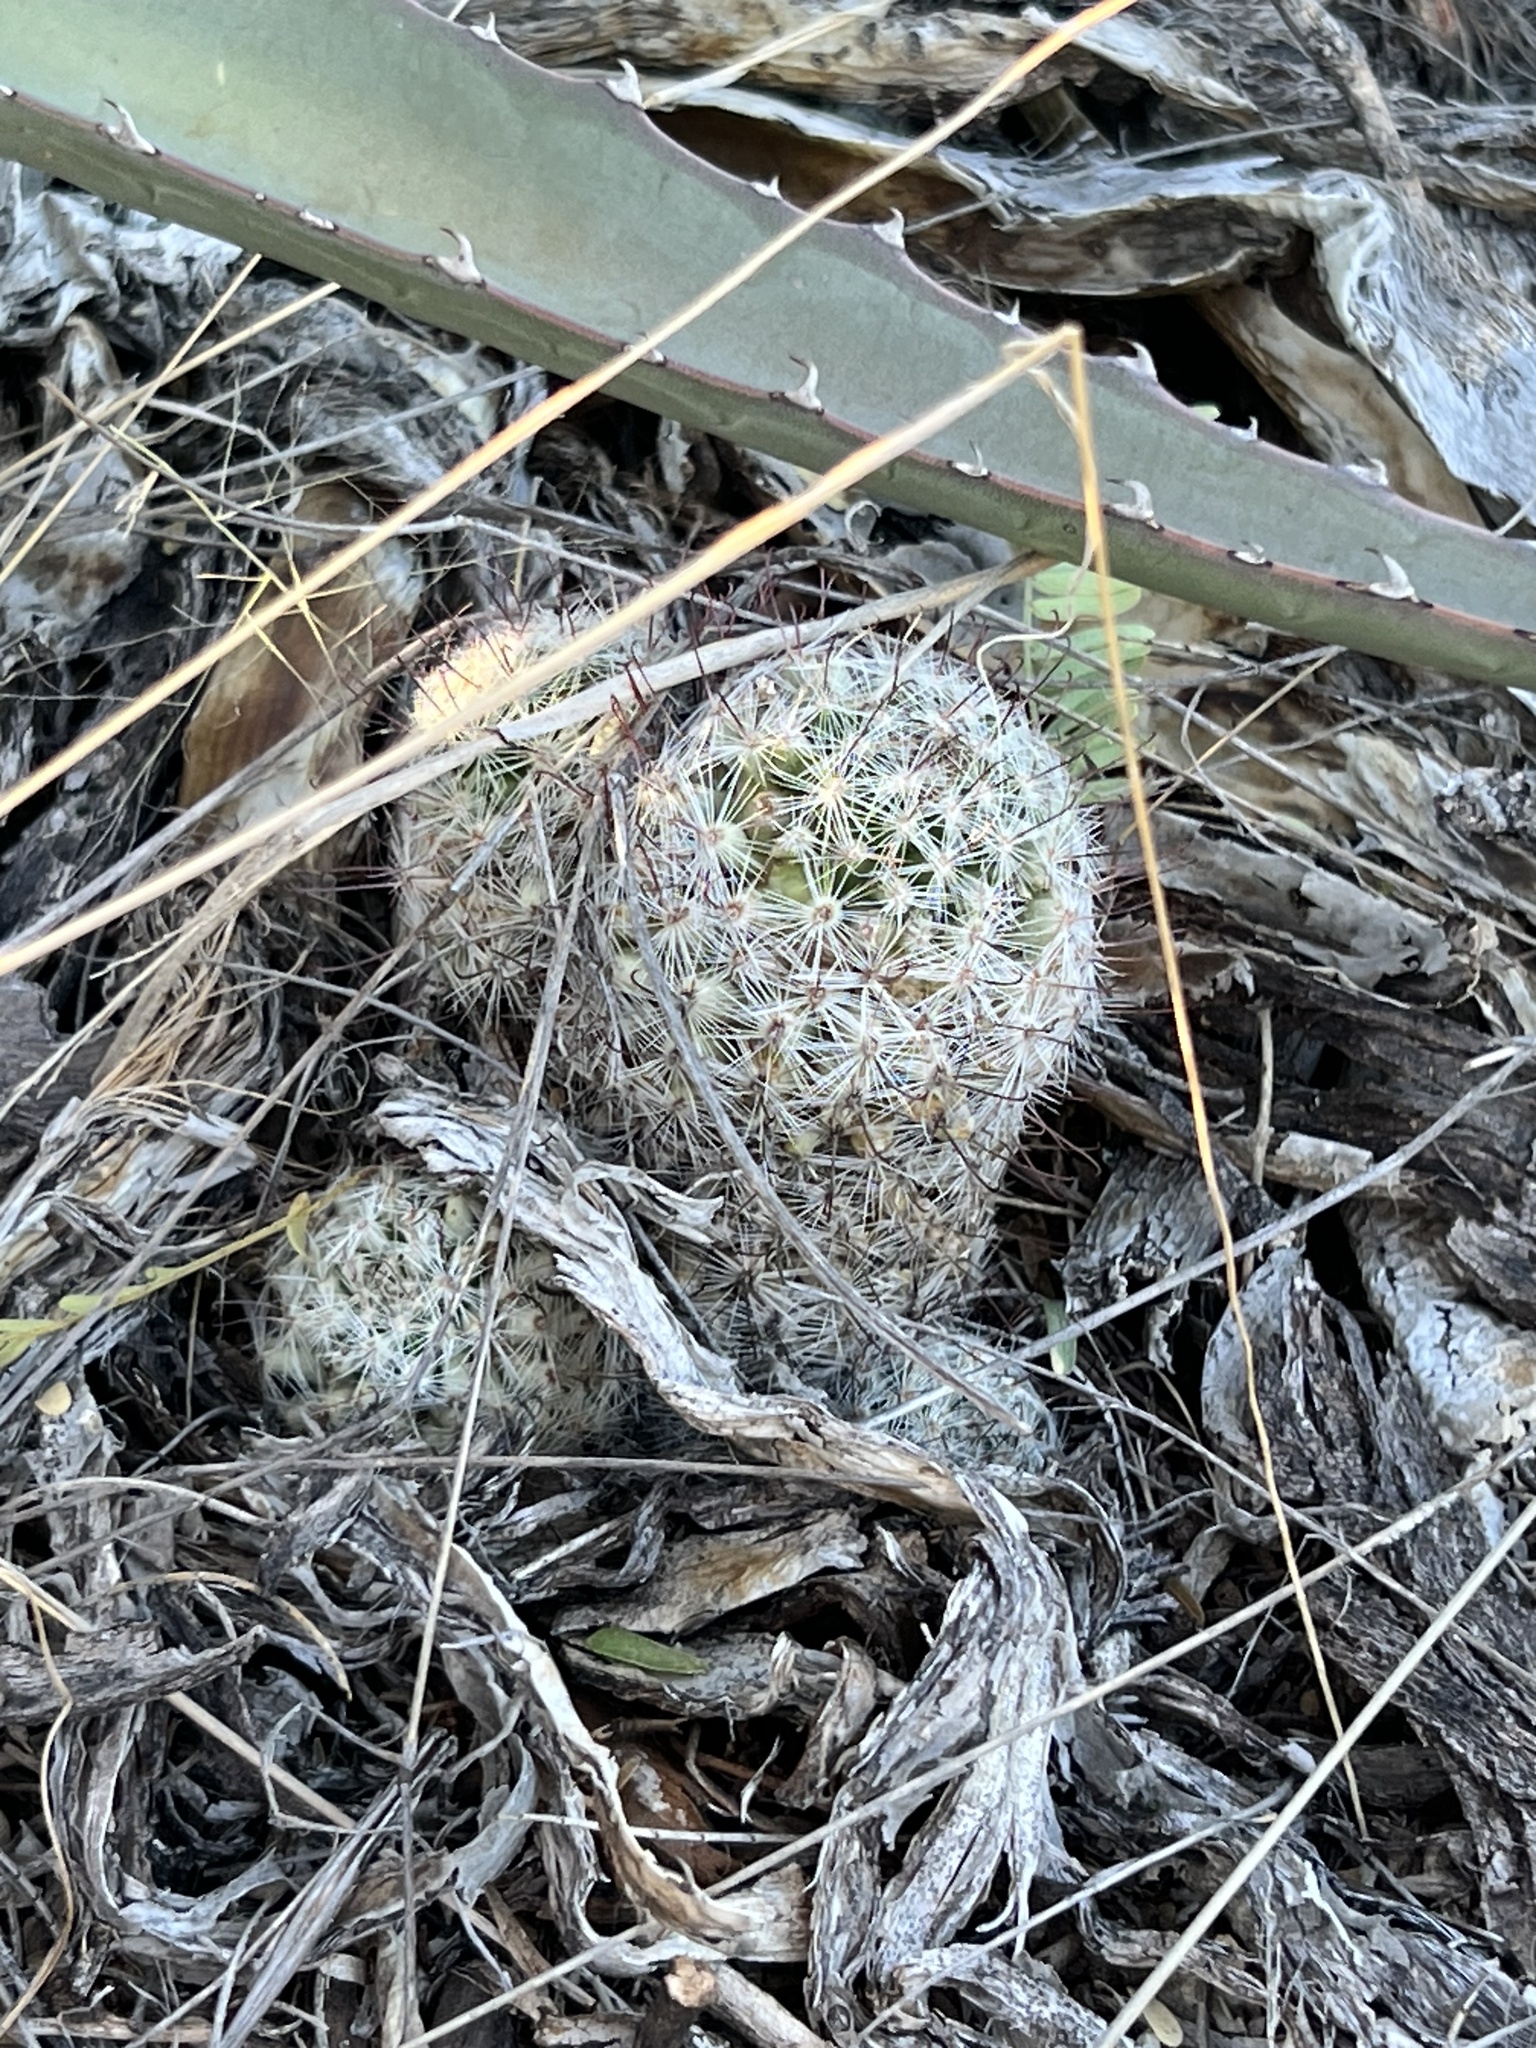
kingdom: Plantae
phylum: Tracheophyta
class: Magnoliopsida
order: Caryophyllales
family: Cactaceae
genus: Cochemiea
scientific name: Cochemiea grahamii
